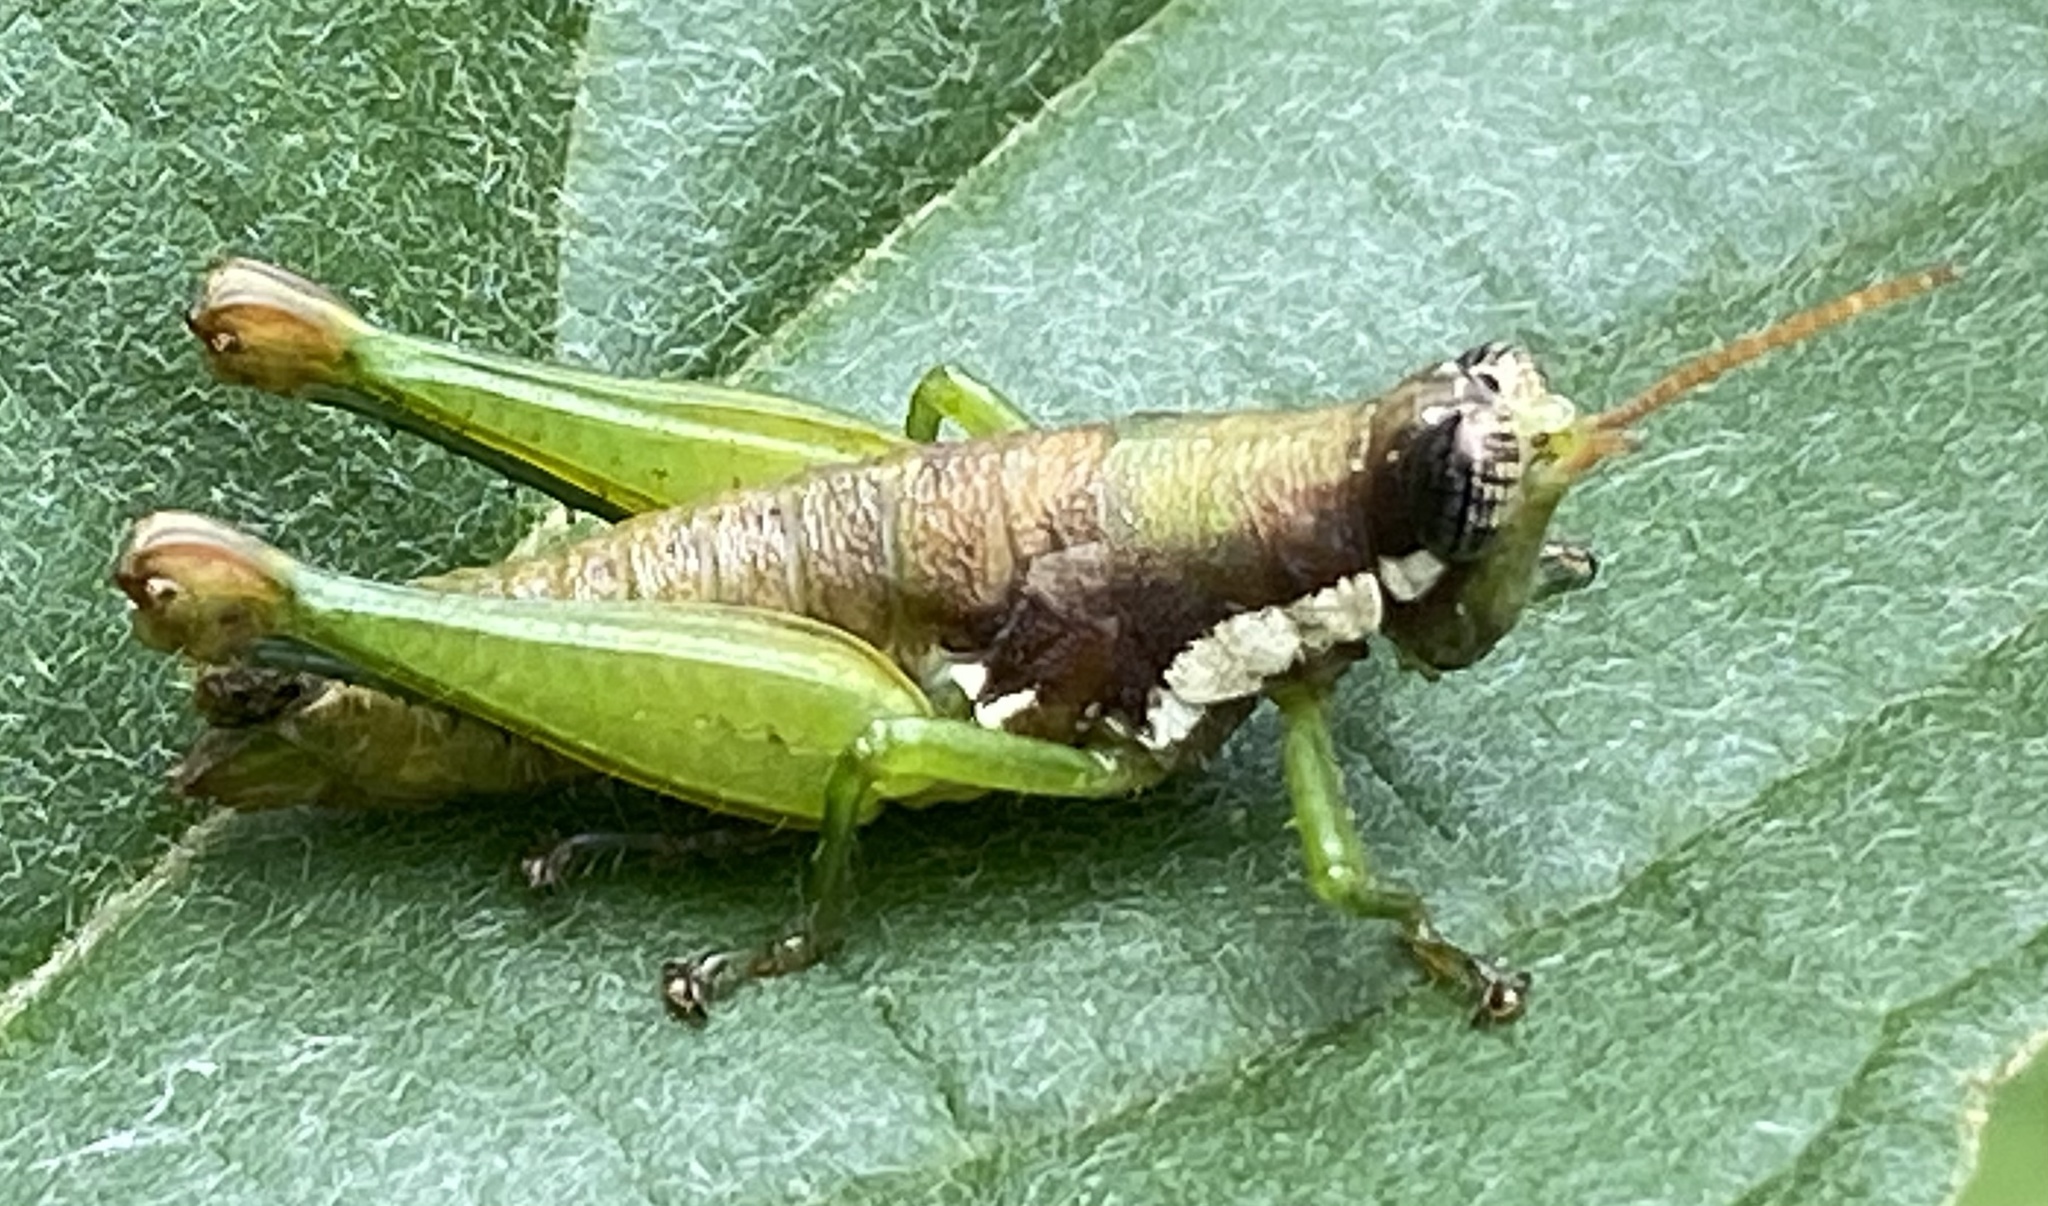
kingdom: Animalia
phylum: Arthropoda
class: Insecta
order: Orthoptera
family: Acrididae
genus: Sitalces
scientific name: Sitalces volxemi
